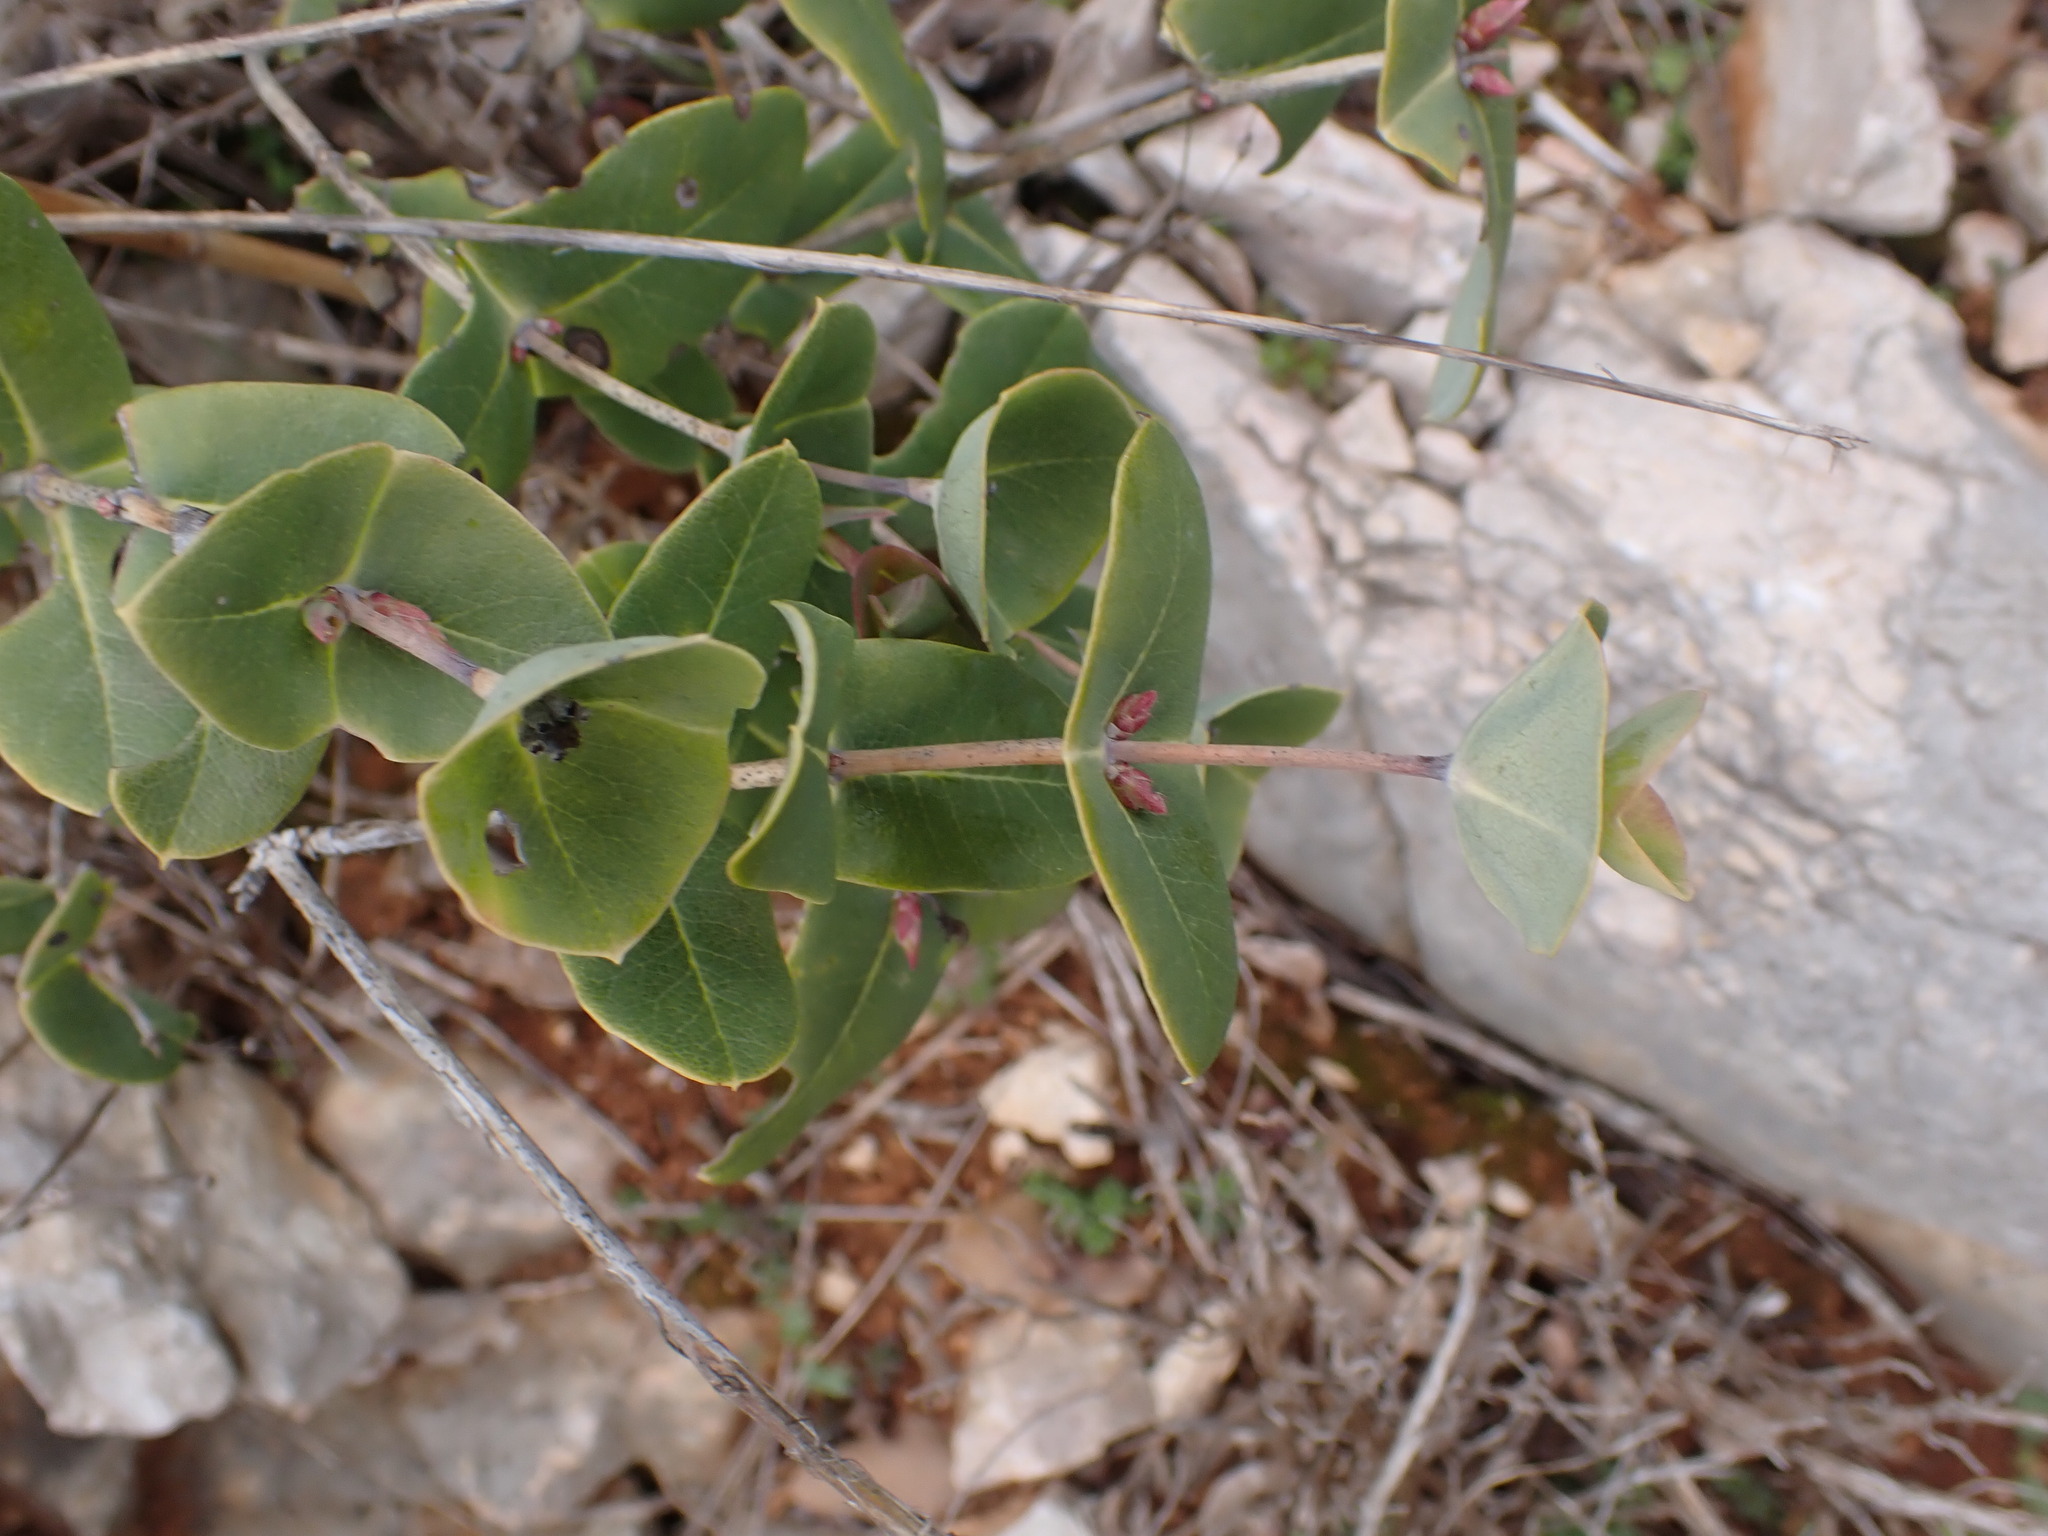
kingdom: Plantae
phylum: Tracheophyta
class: Magnoliopsida
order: Dipsacales
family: Caprifoliaceae
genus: Lonicera
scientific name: Lonicera implexa
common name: Minorca honeysuckle
